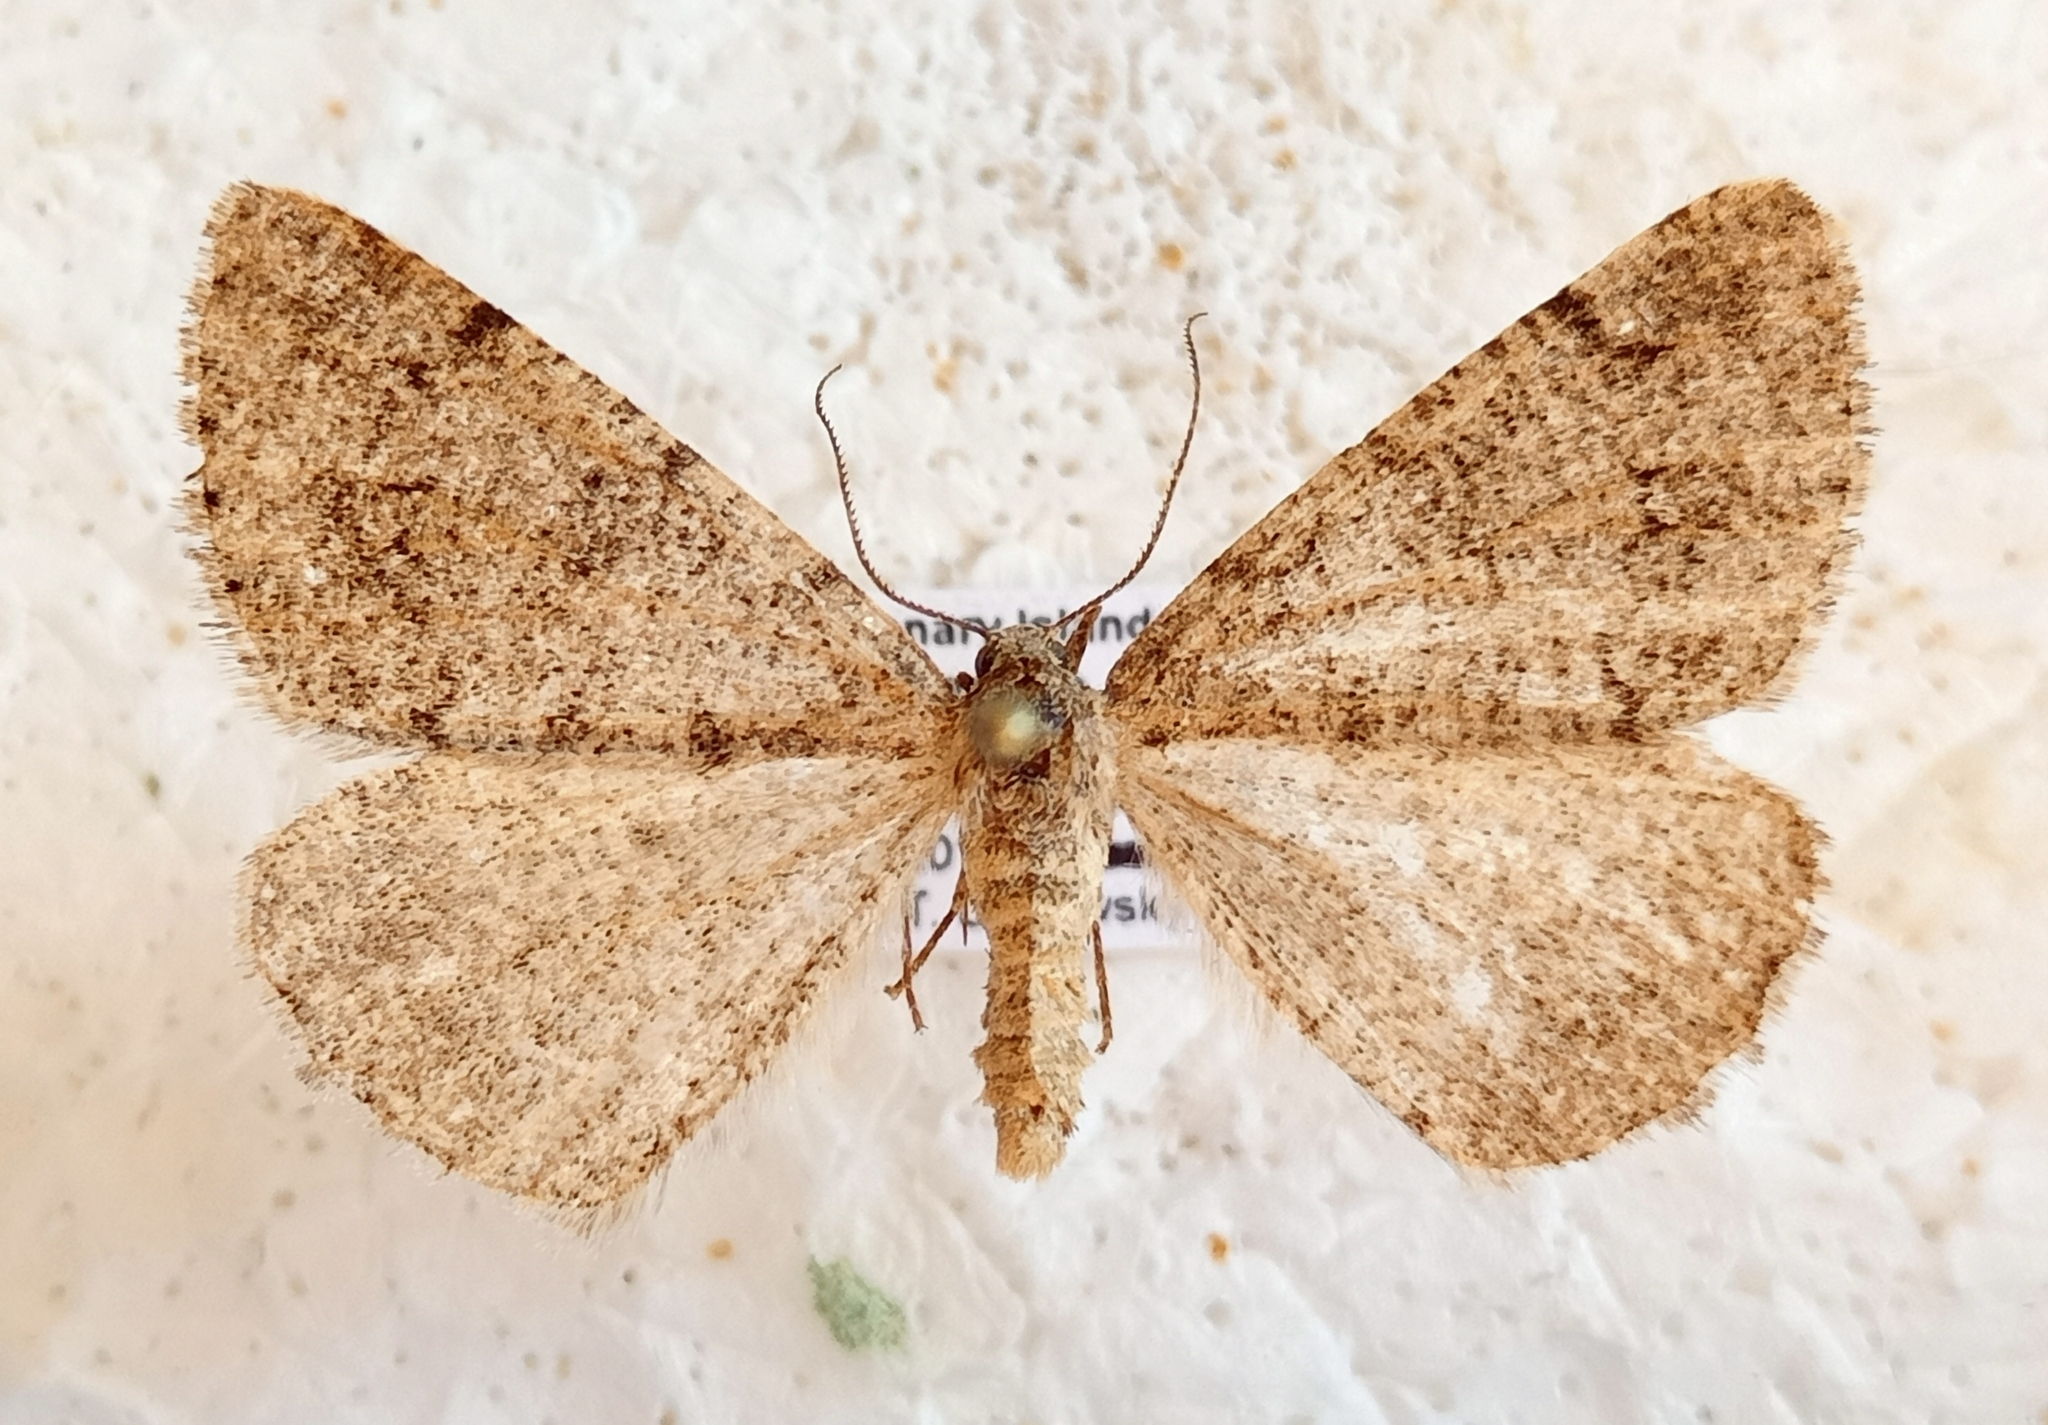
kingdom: Animalia
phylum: Arthropoda
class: Insecta
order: Lepidoptera
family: Geometridae
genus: Isturgia
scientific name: Isturgia tennoa
